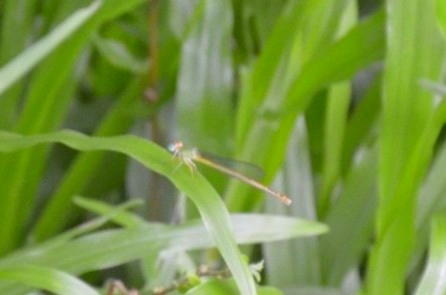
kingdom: Animalia
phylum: Arthropoda
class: Insecta
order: Odonata
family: Coenagrionidae
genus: Ceriagrion
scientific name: Ceriagrion coromandelianum
